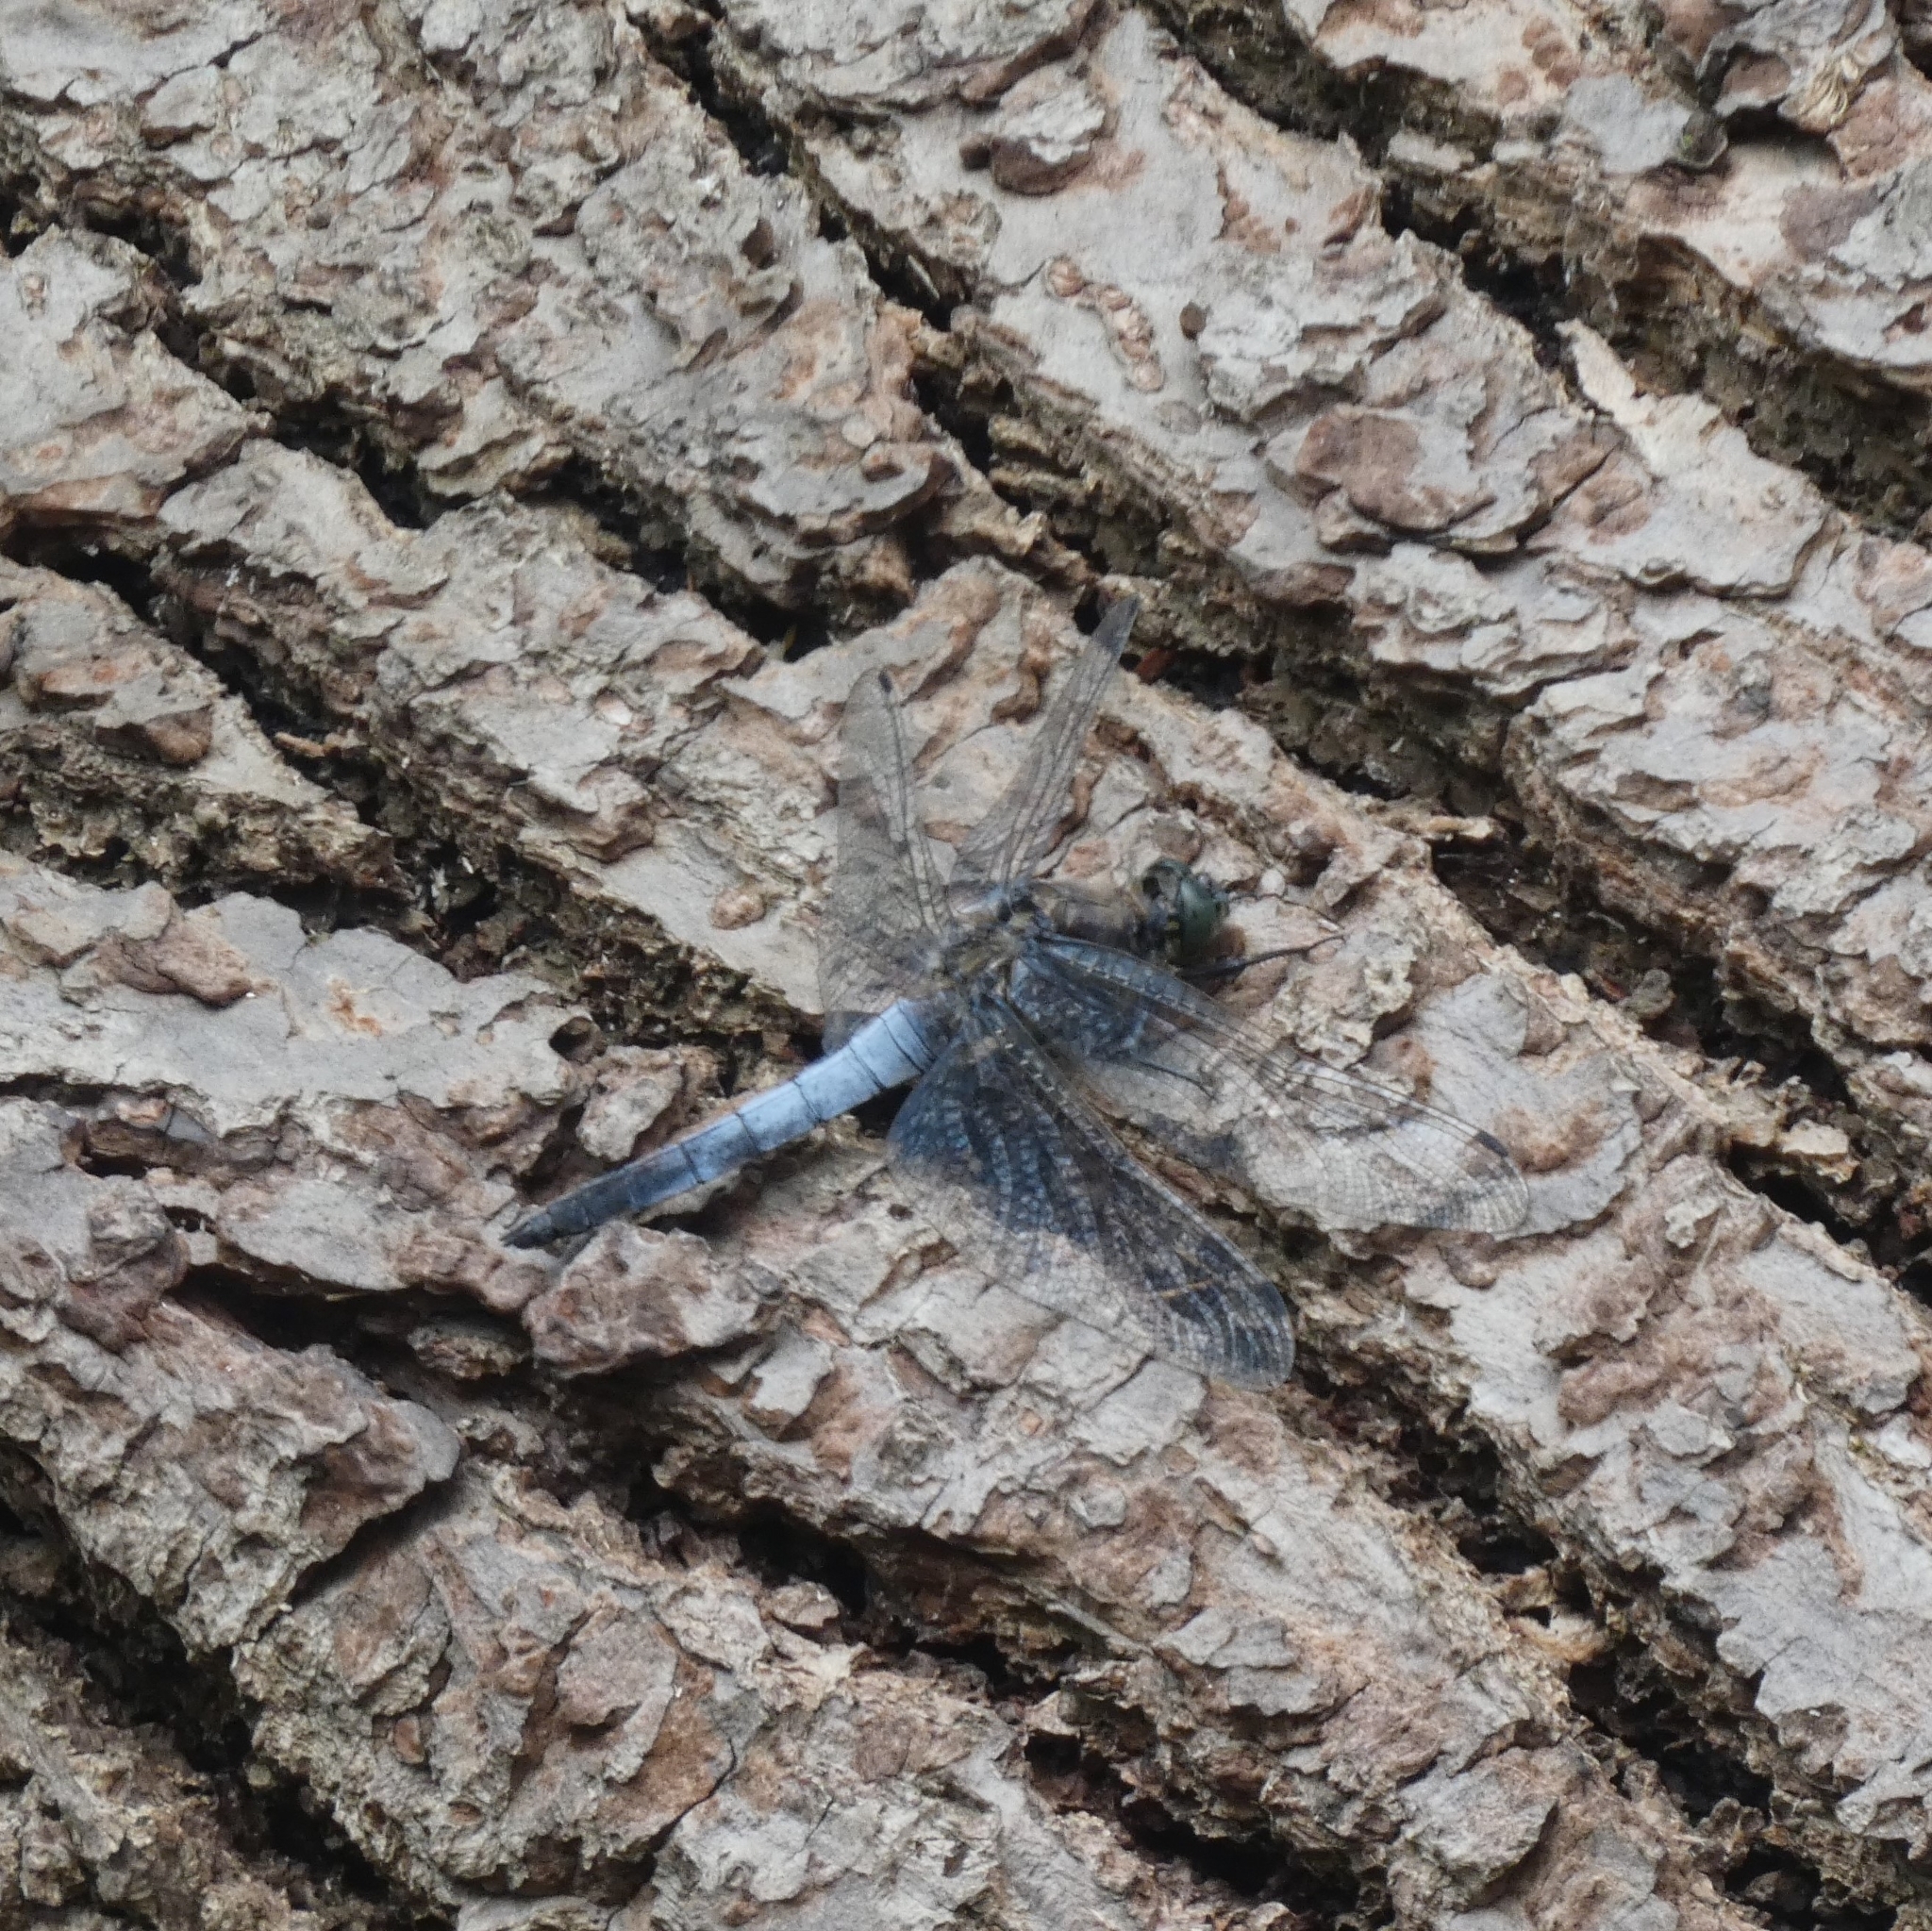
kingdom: Animalia
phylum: Arthropoda
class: Insecta
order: Odonata
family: Libellulidae
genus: Orthetrum
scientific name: Orthetrum cancellatum
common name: Black-tailed skimmer
